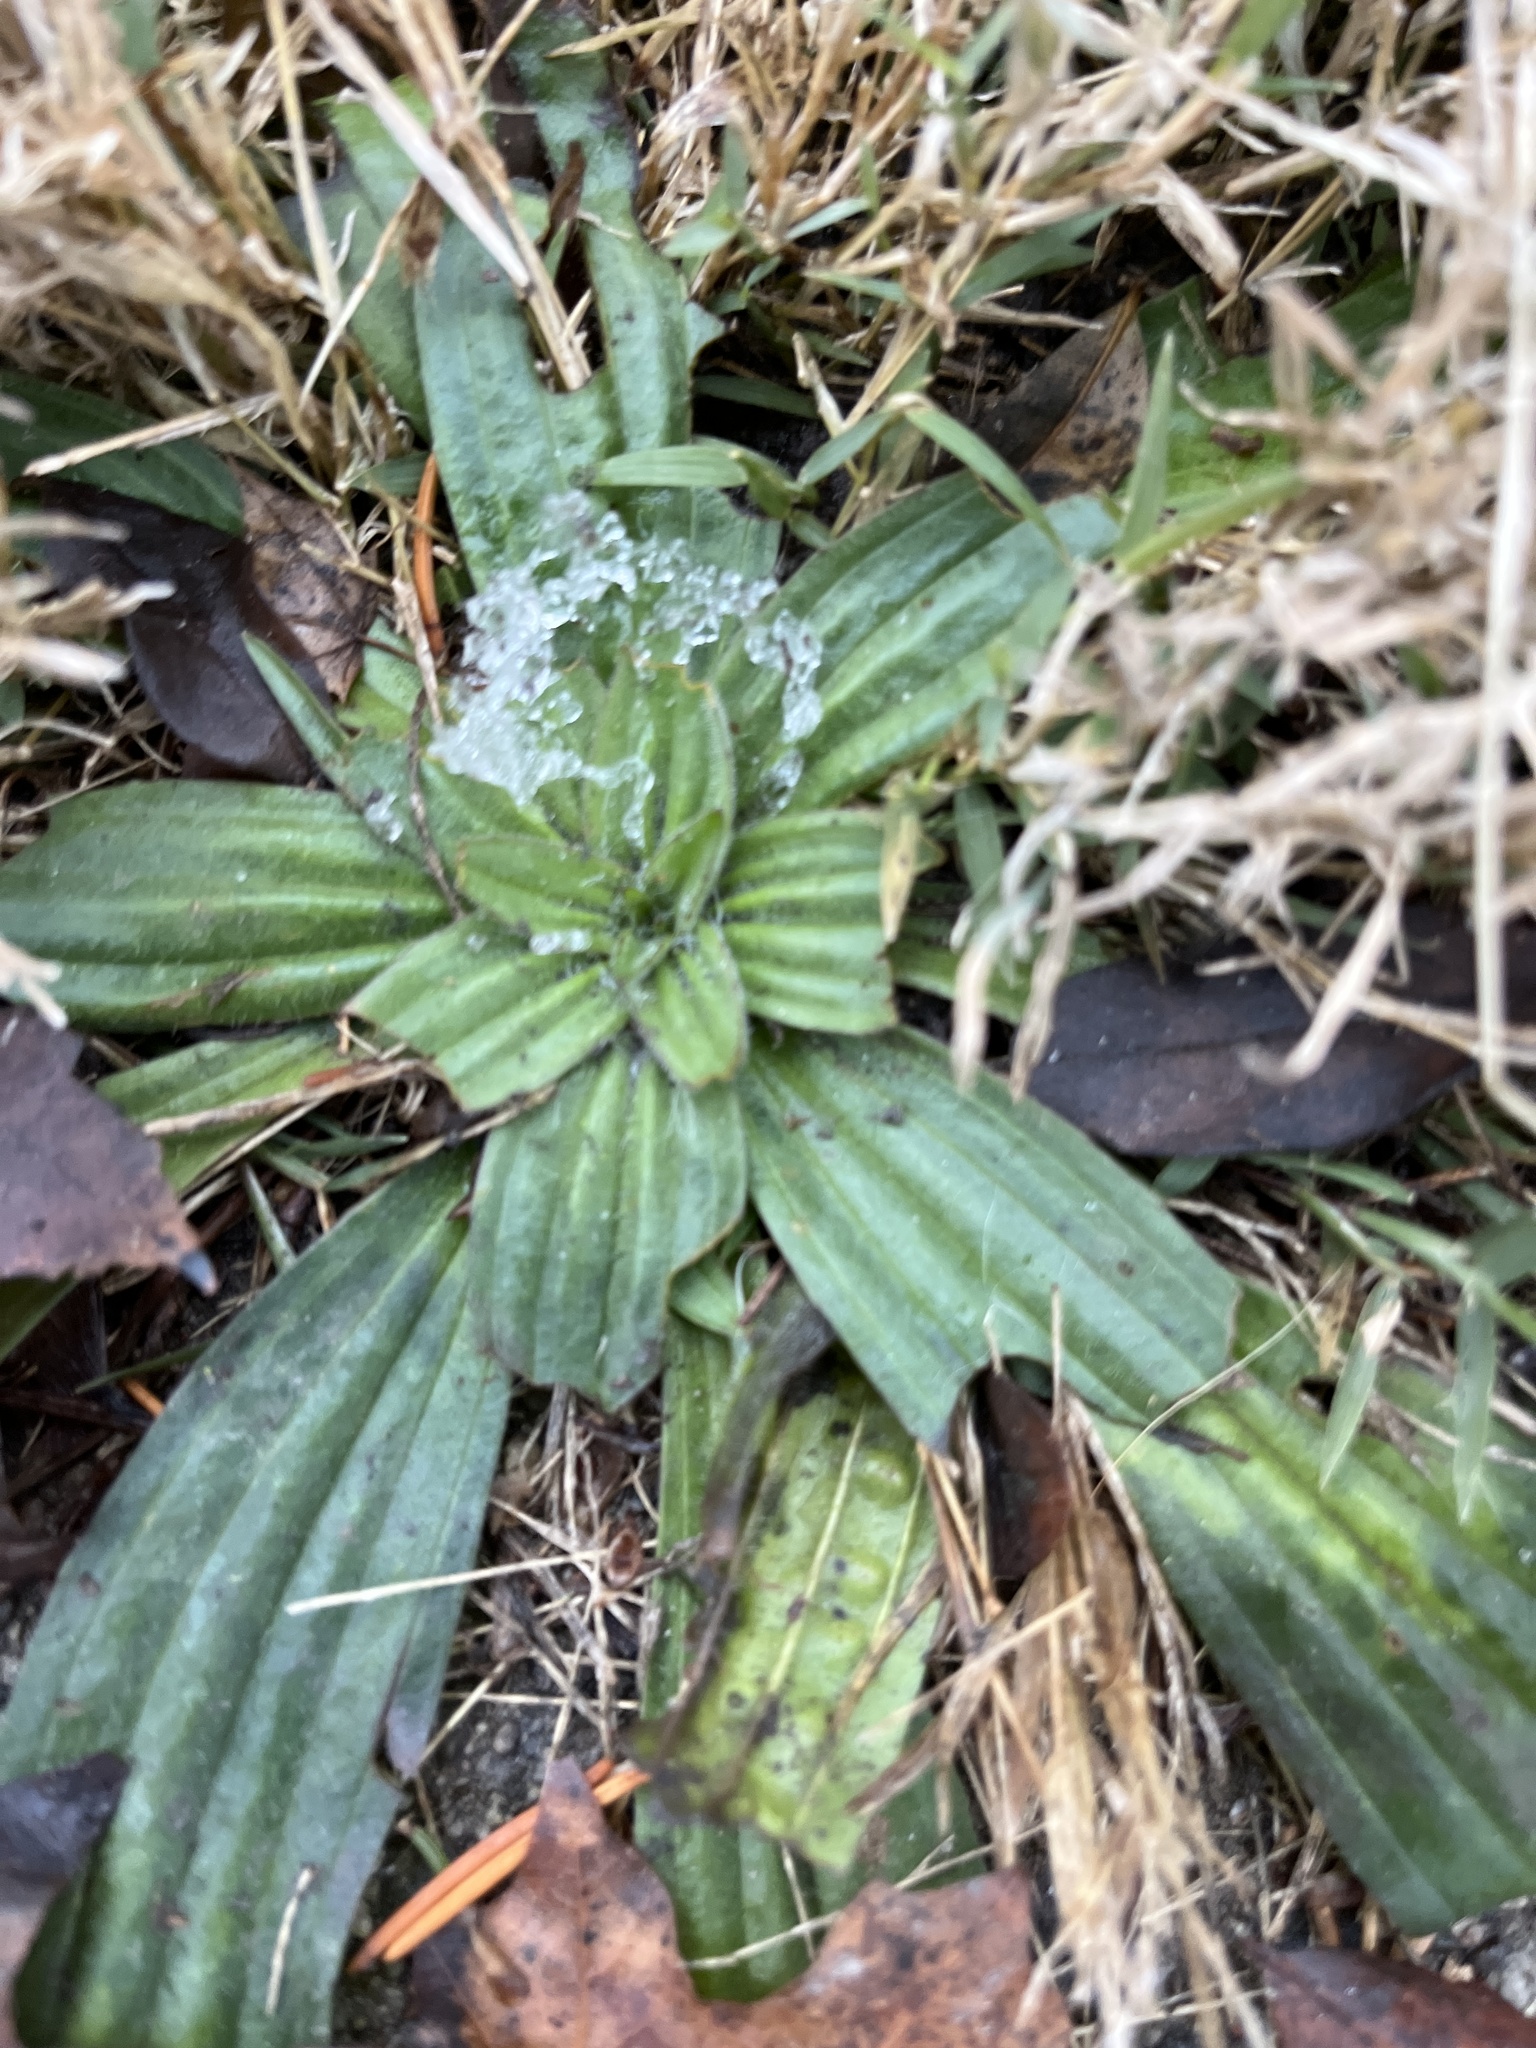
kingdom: Plantae
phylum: Tracheophyta
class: Magnoliopsida
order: Lamiales
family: Plantaginaceae
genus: Plantago
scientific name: Plantago lanceolata
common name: Ribwort plantain
